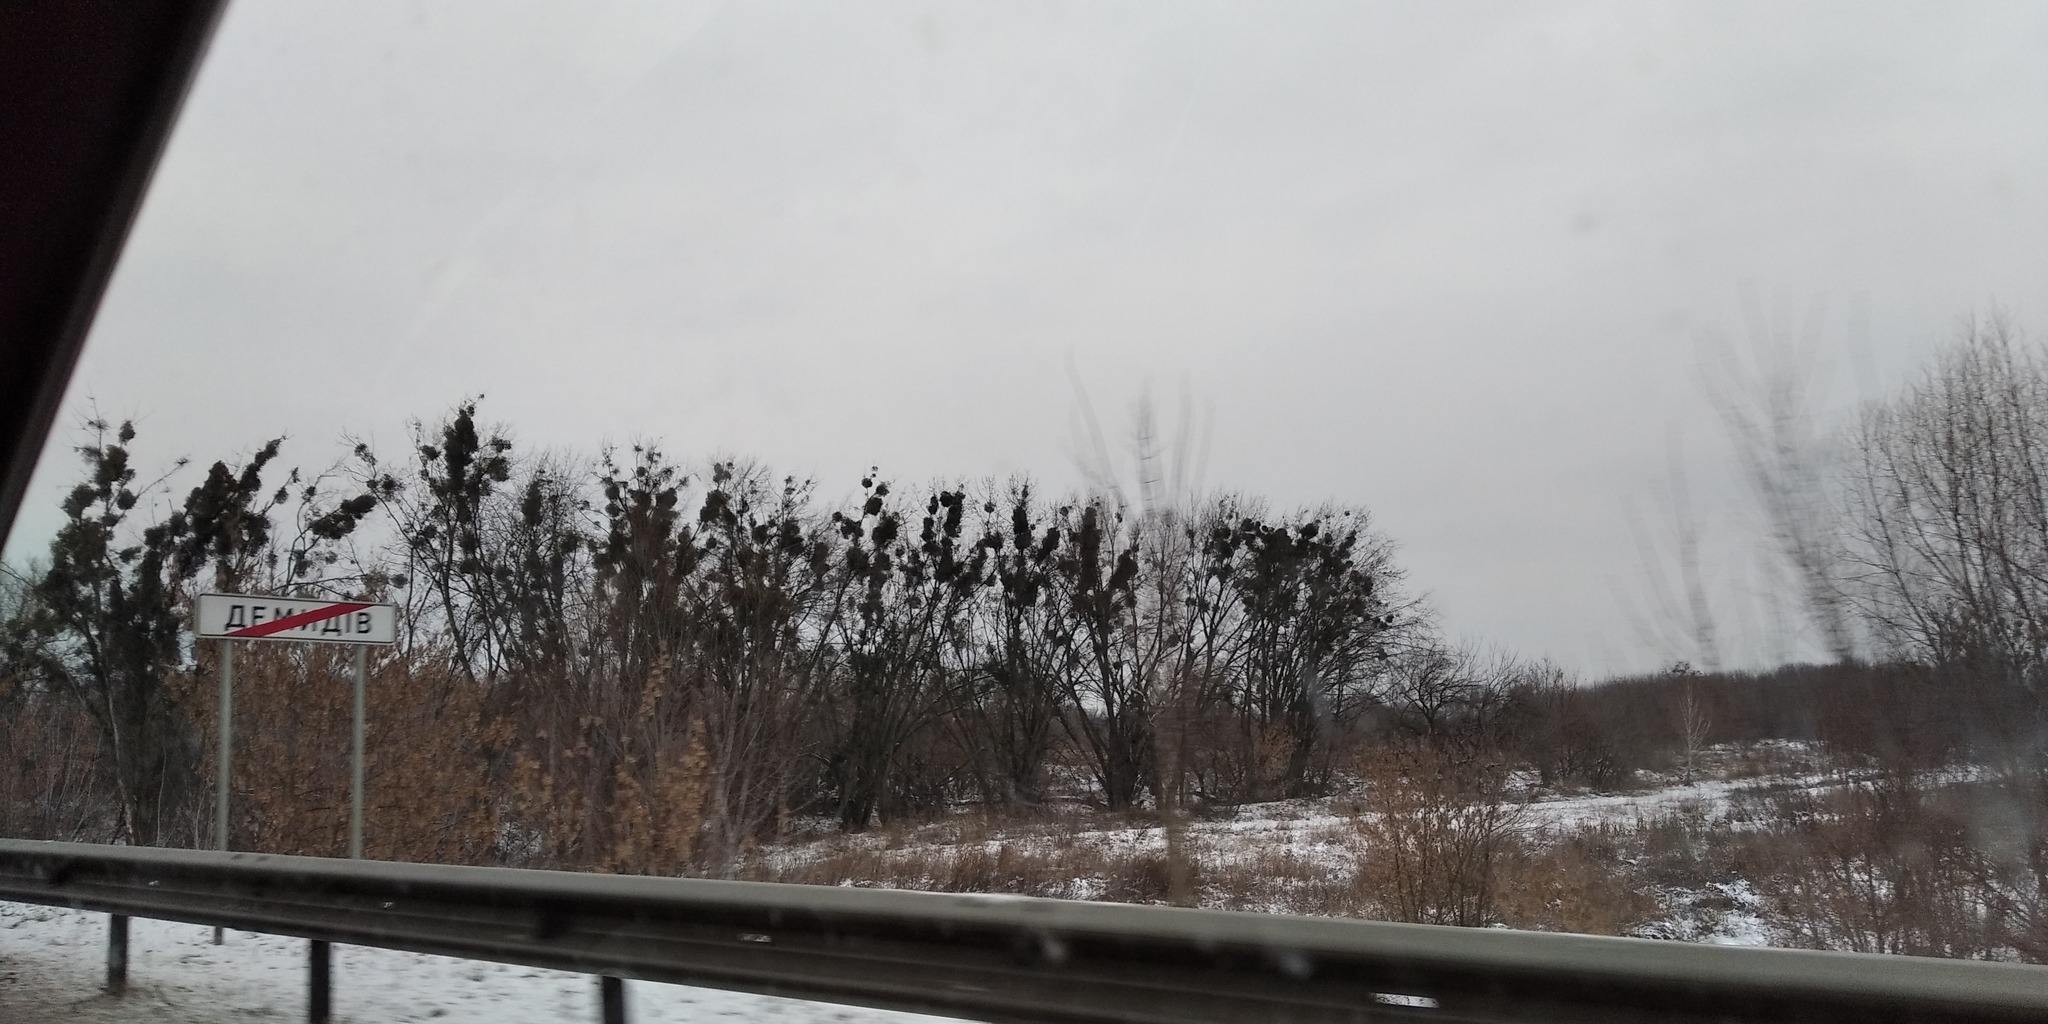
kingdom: Plantae
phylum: Tracheophyta
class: Magnoliopsida
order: Santalales
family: Viscaceae
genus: Viscum
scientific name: Viscum album
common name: Mistletoe
